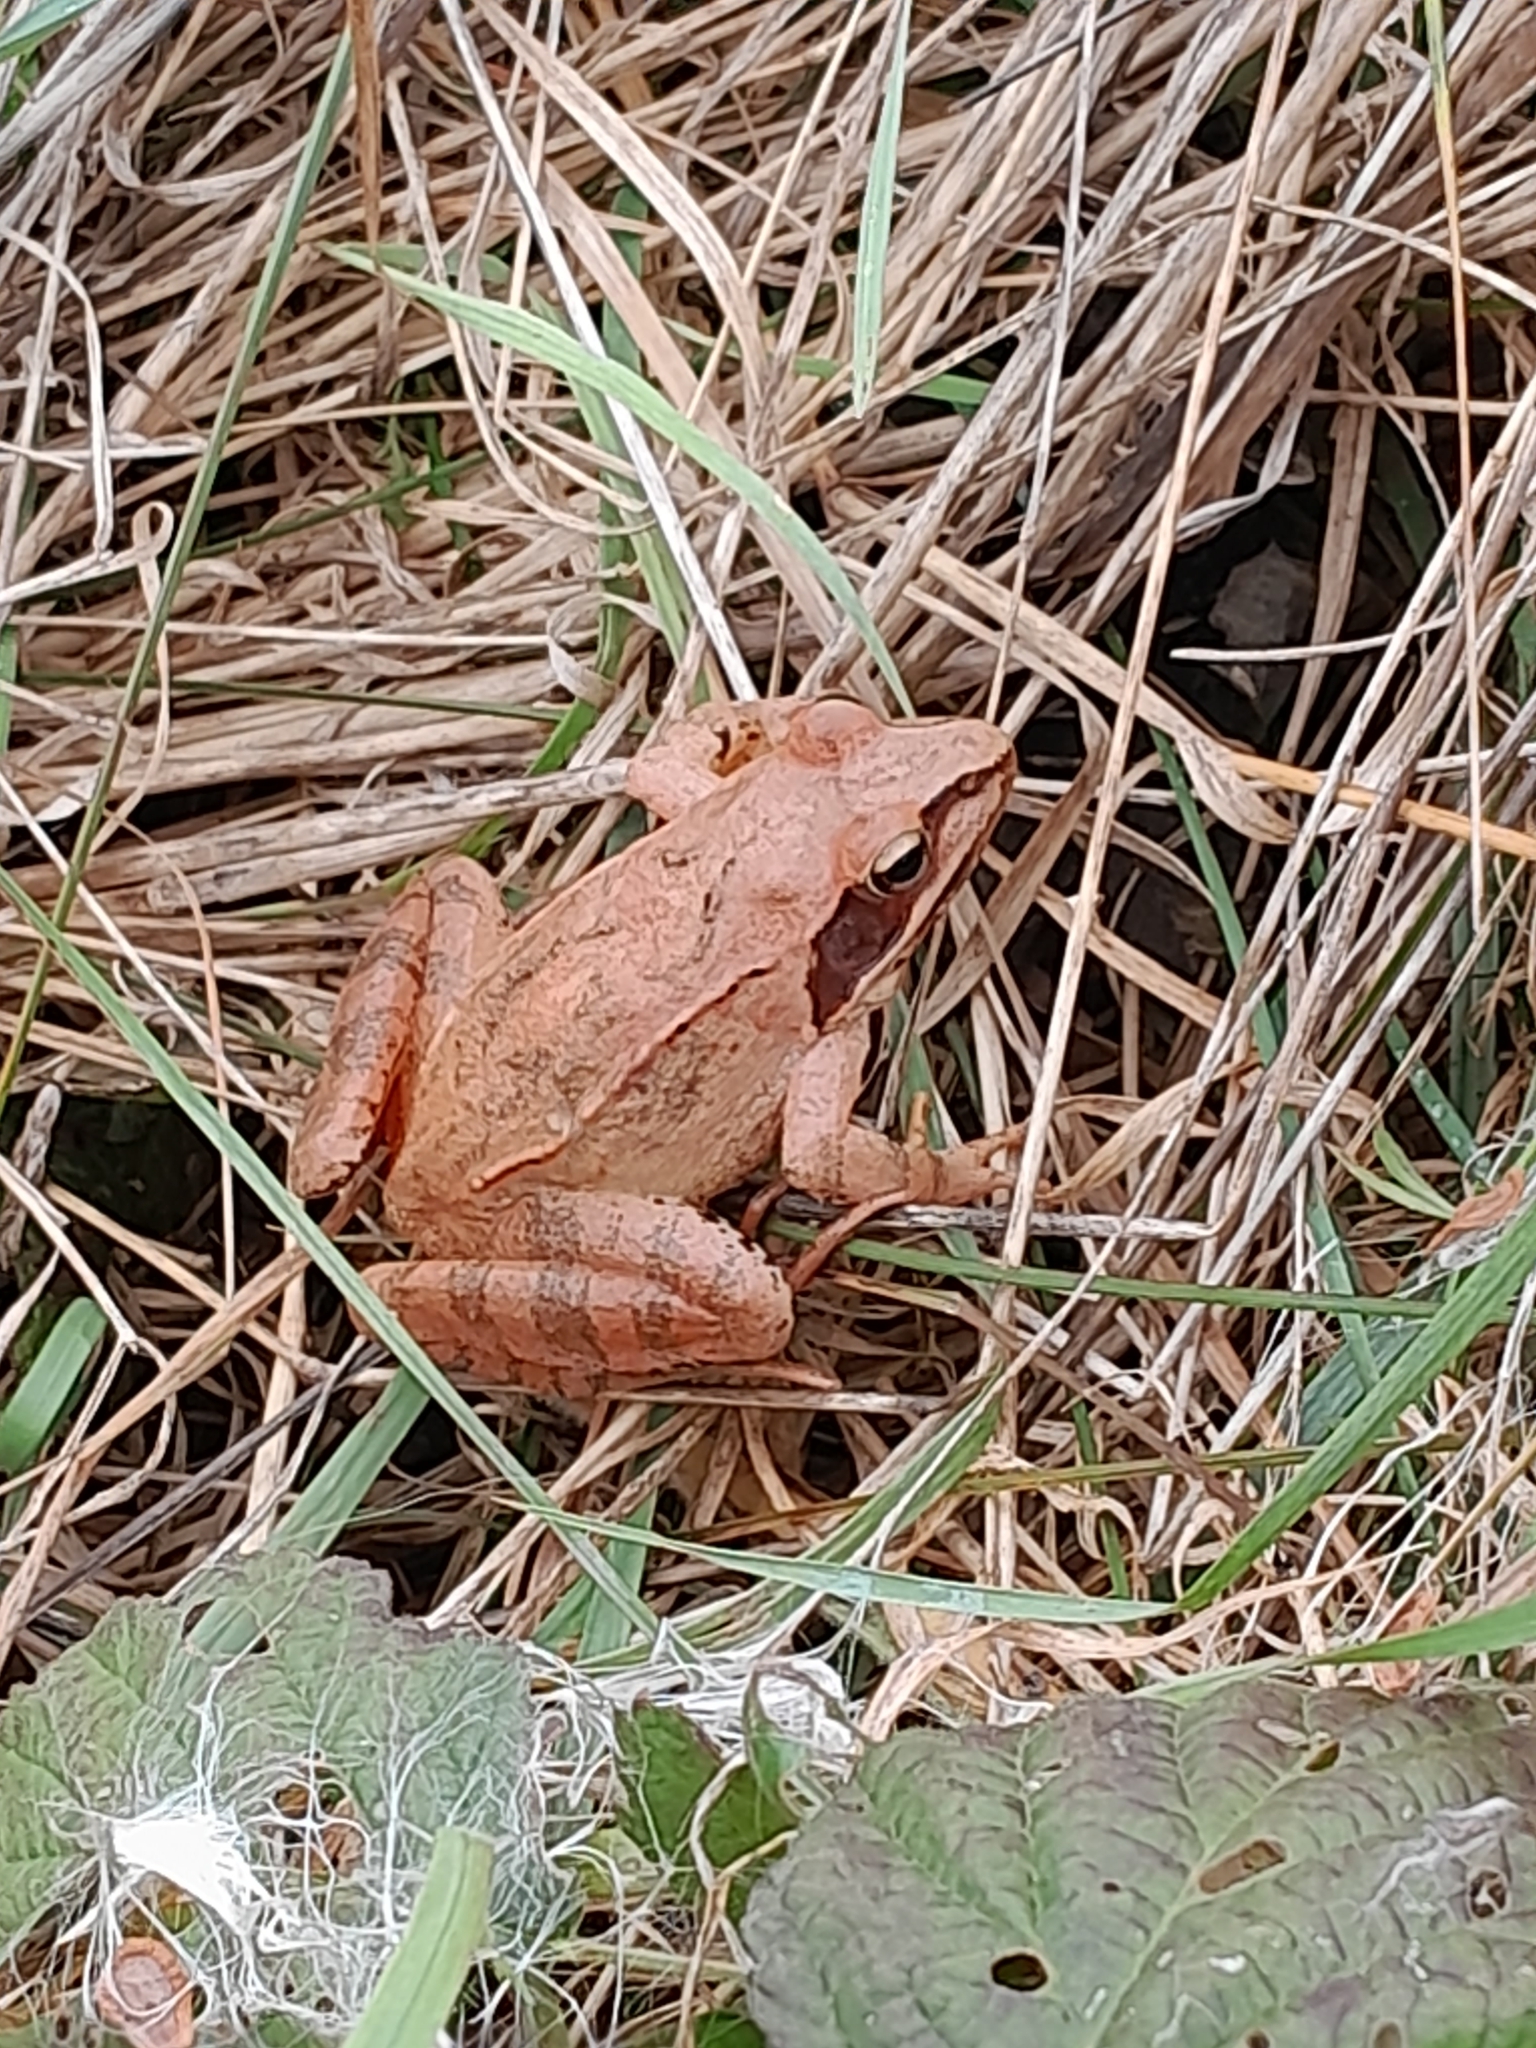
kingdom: Animalia
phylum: Chordata
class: Amphibia
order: Anura
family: Ranidae
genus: Rana
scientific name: Rana dalmatina
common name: Agile frog
